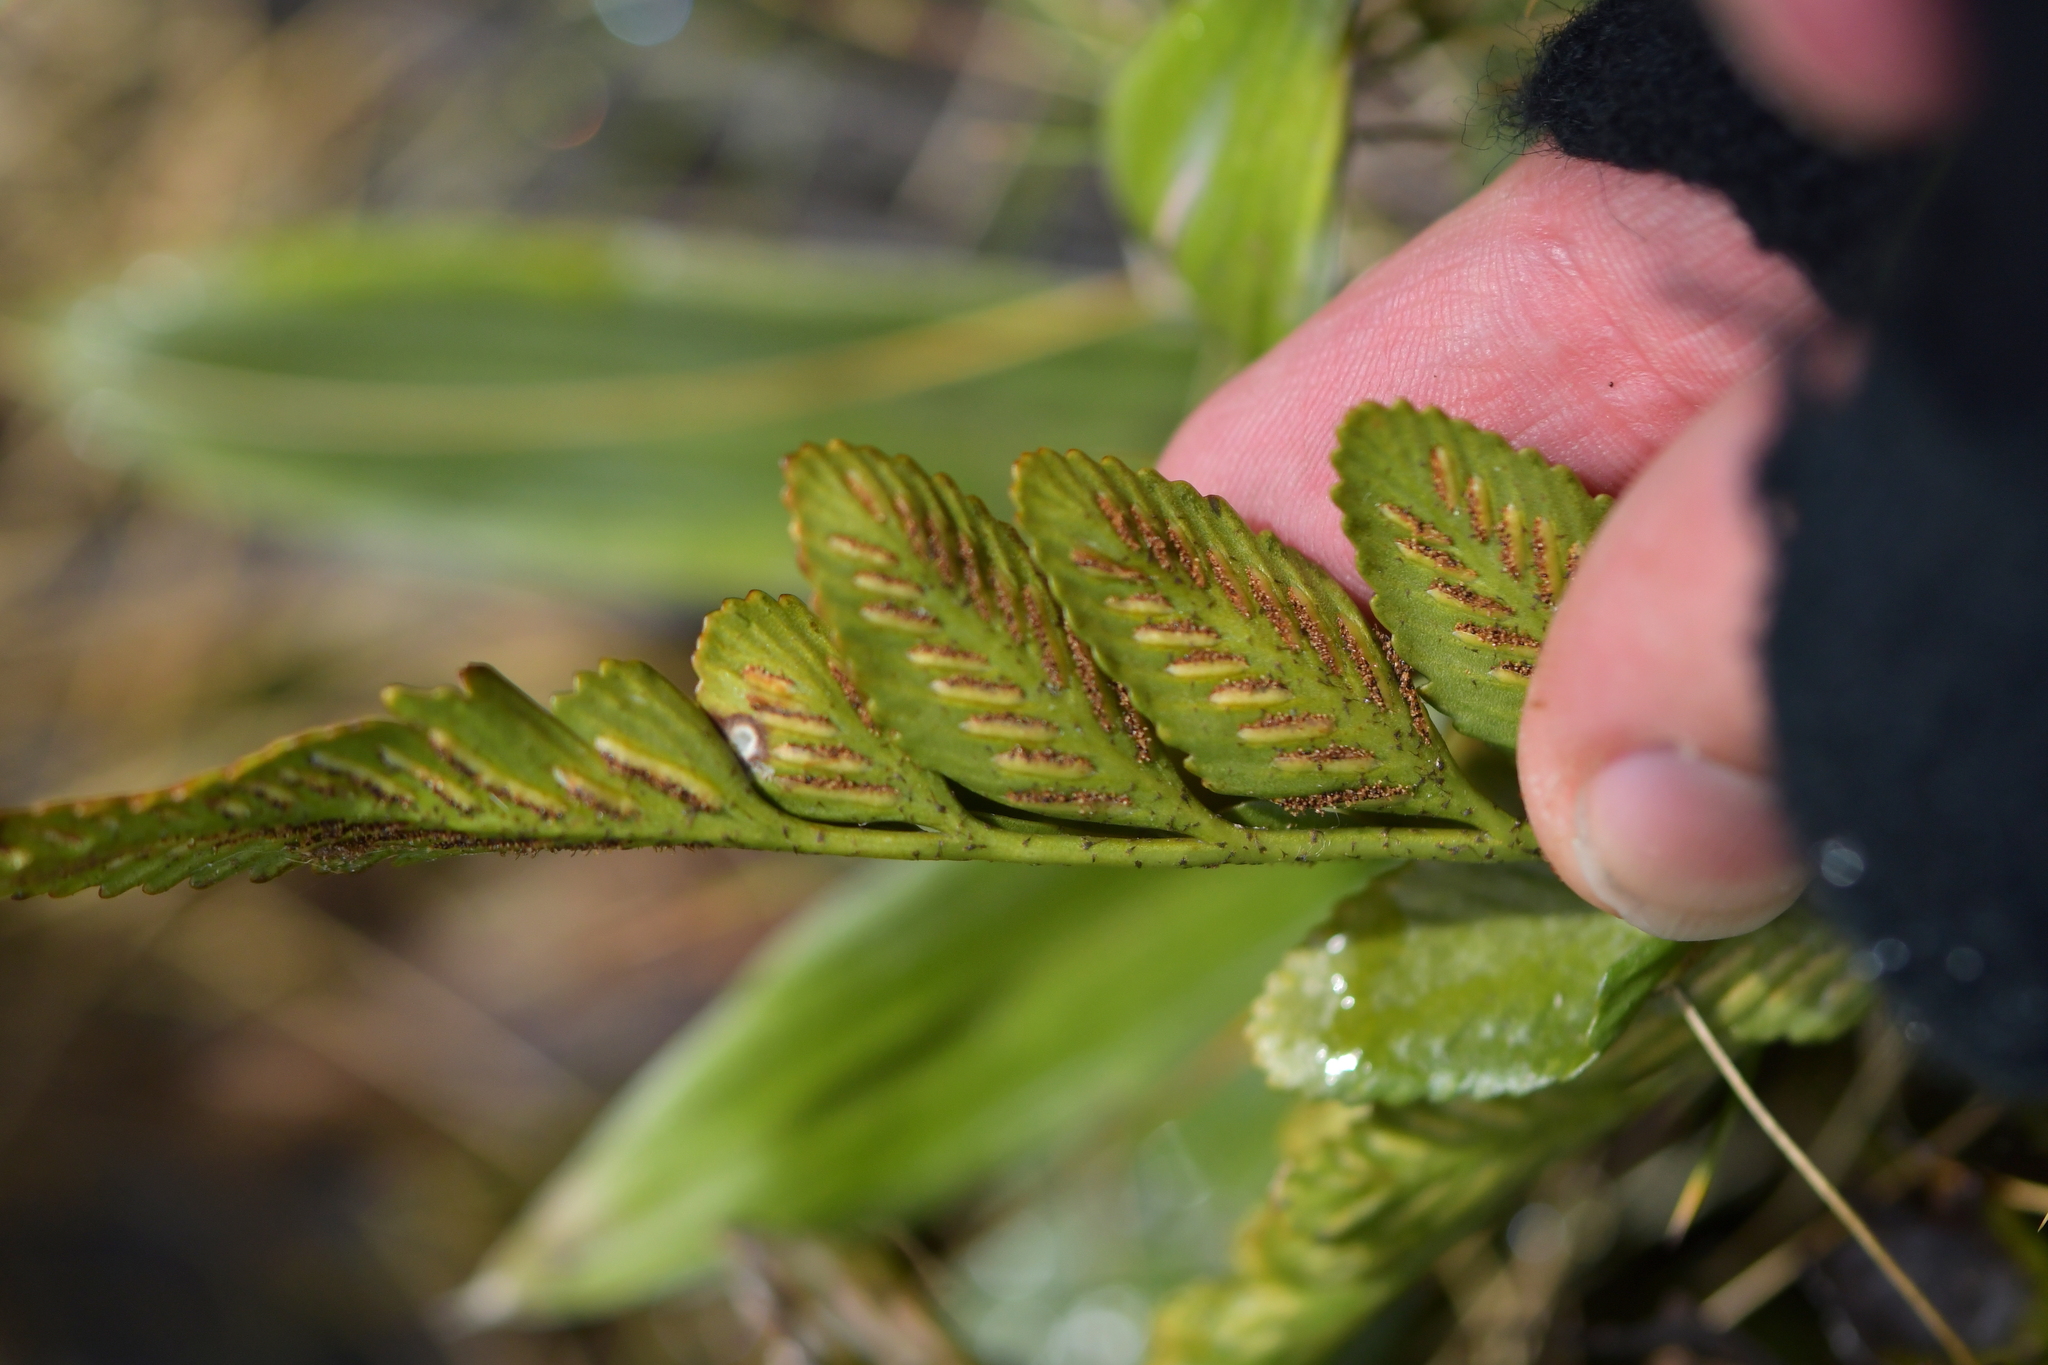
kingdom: Plantae
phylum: Tracheophyta
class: Polypodiopsida
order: Polypodiales
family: Aspleniaceae
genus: Asplenium
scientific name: Asplenium lyallii
